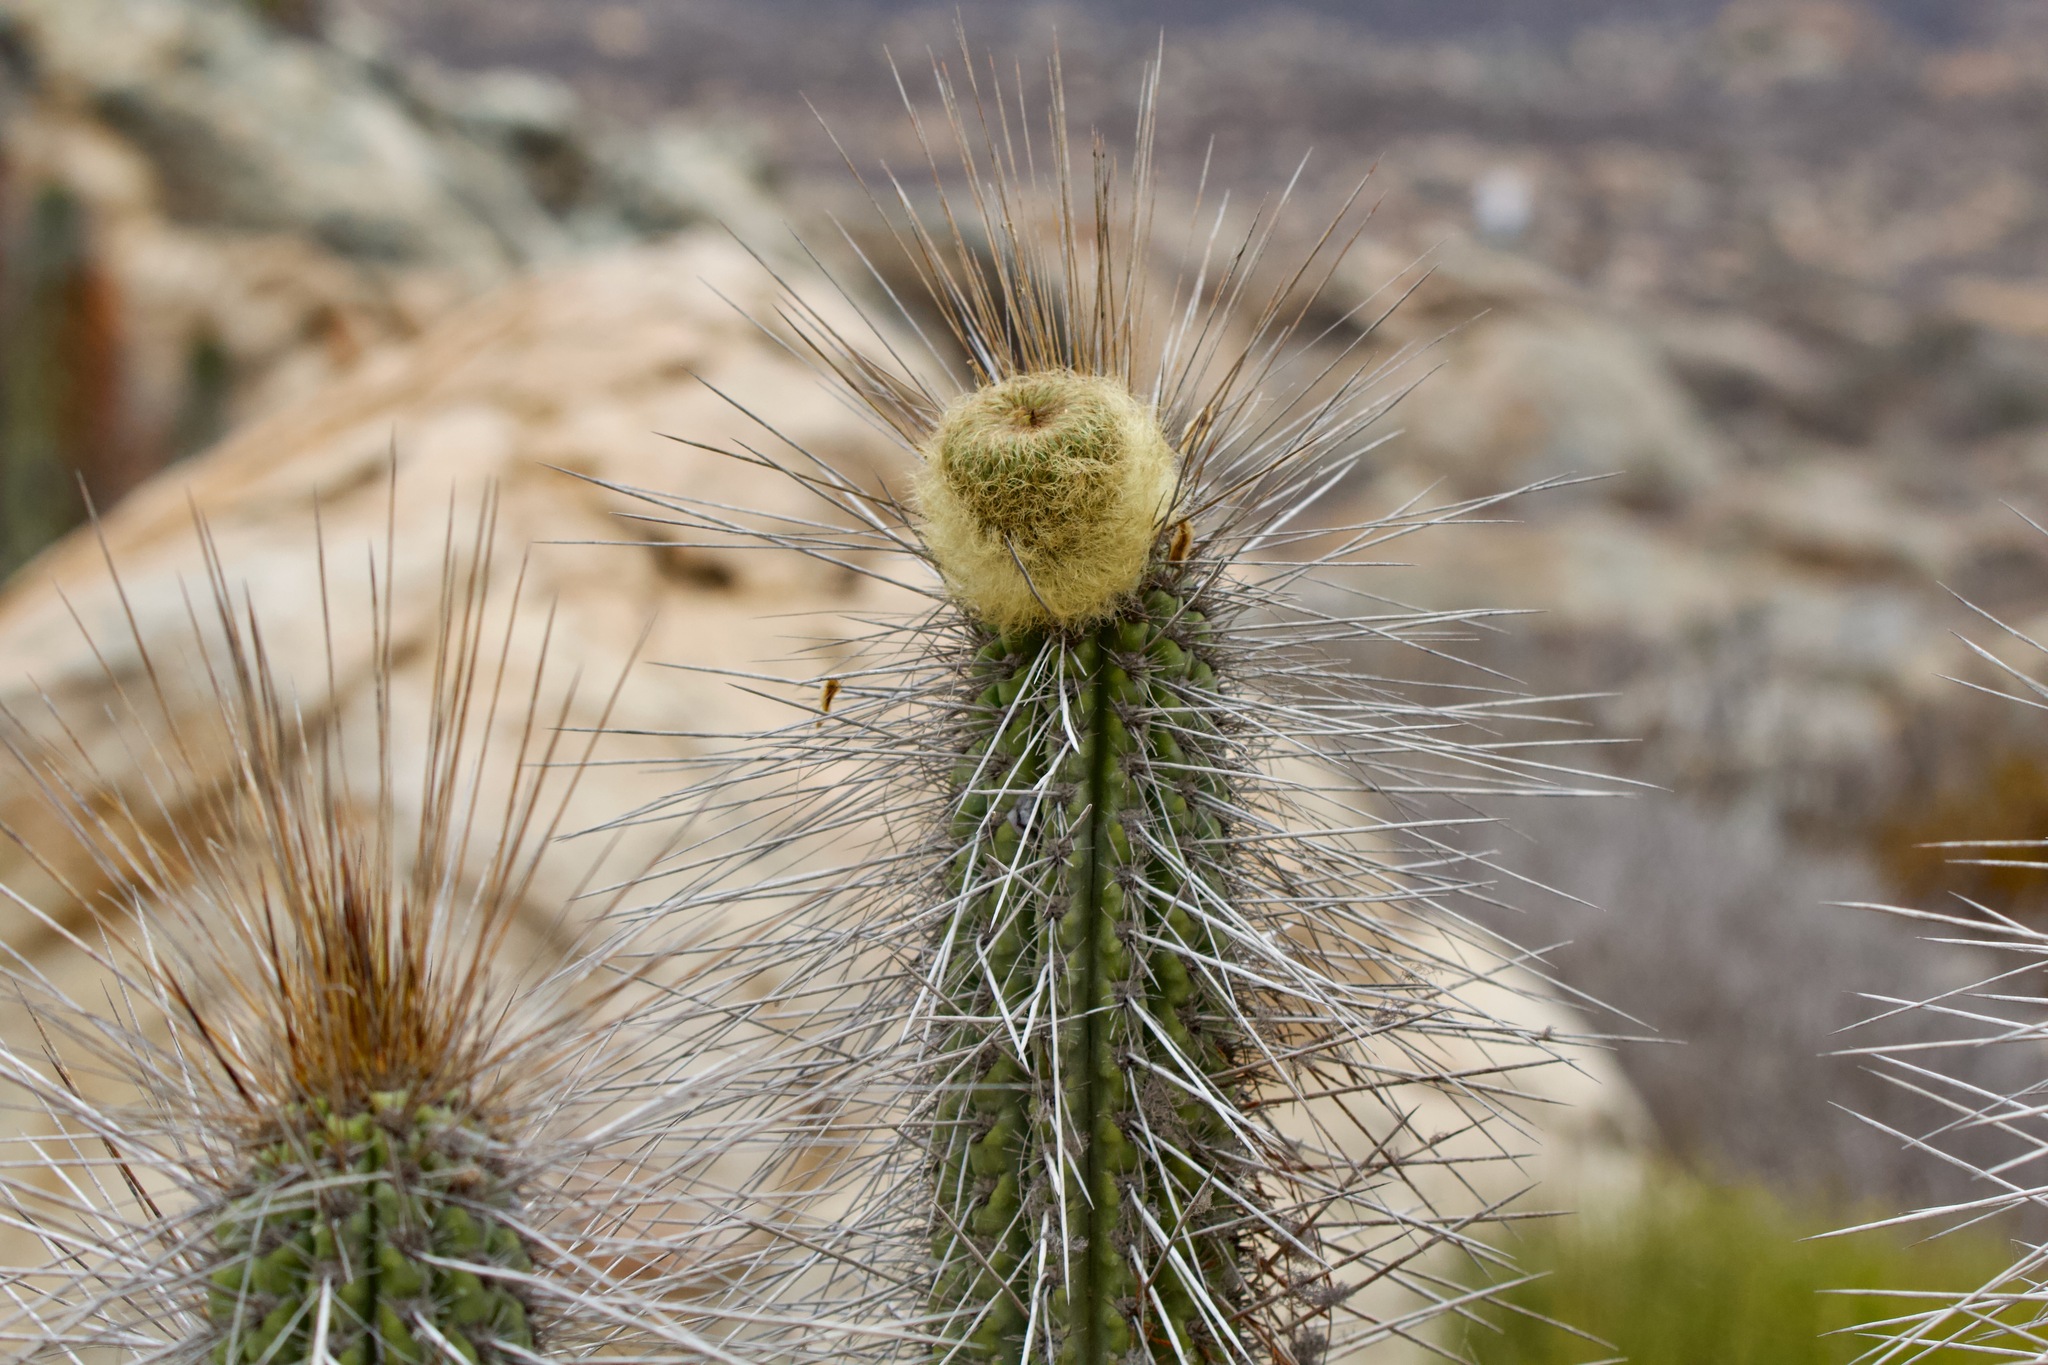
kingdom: Plantae
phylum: Tracheophyta
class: Magnoliopsida
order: Caryophyllales
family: Cactaceae
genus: Eulychnia
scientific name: Eulychnia breviflora
